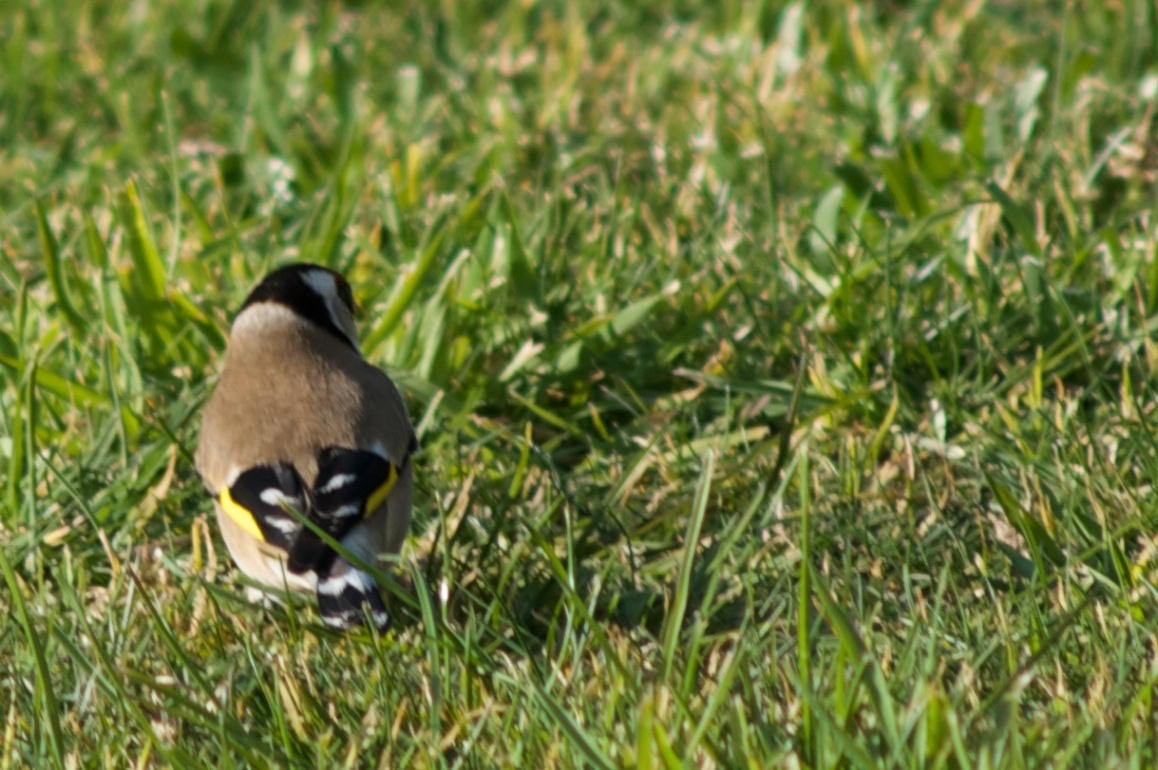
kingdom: Animalia
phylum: Chordata
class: Aves
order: Passeriformes
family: Fringillidae
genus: Carduelis
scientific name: Carduelis carduelis
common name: European goldfinch
